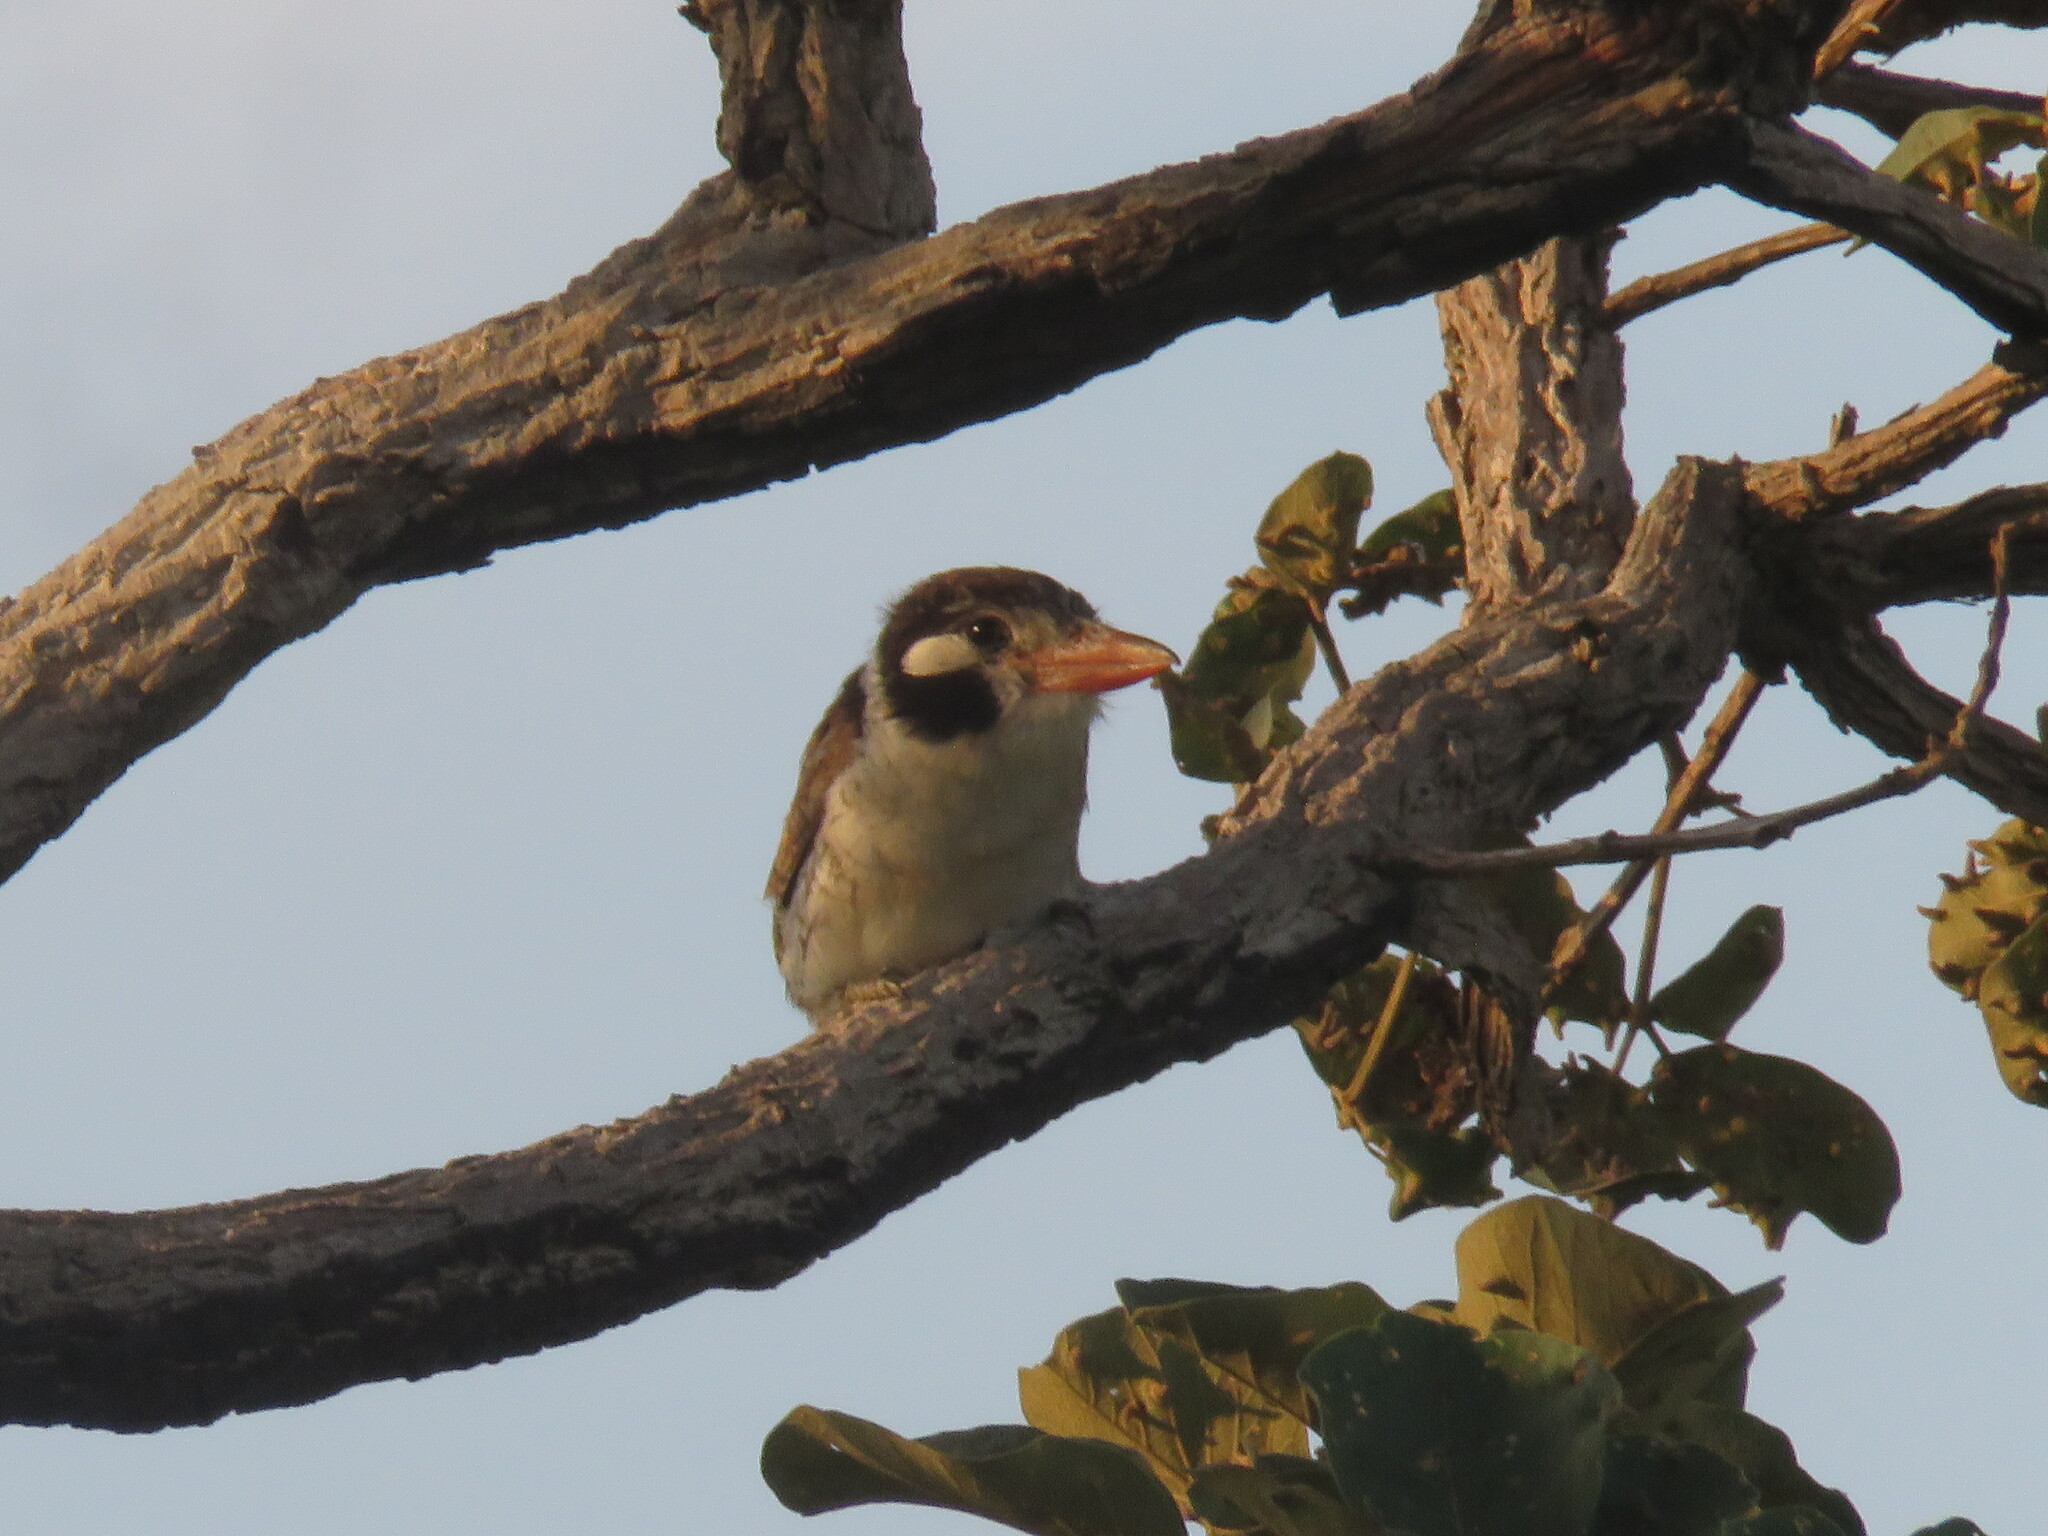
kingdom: Animalia
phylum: Chordata
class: Aves
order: Piciformes
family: Bucconidae
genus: Nystalus
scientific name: Nystalus chacuru
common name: White-eared puffbird
